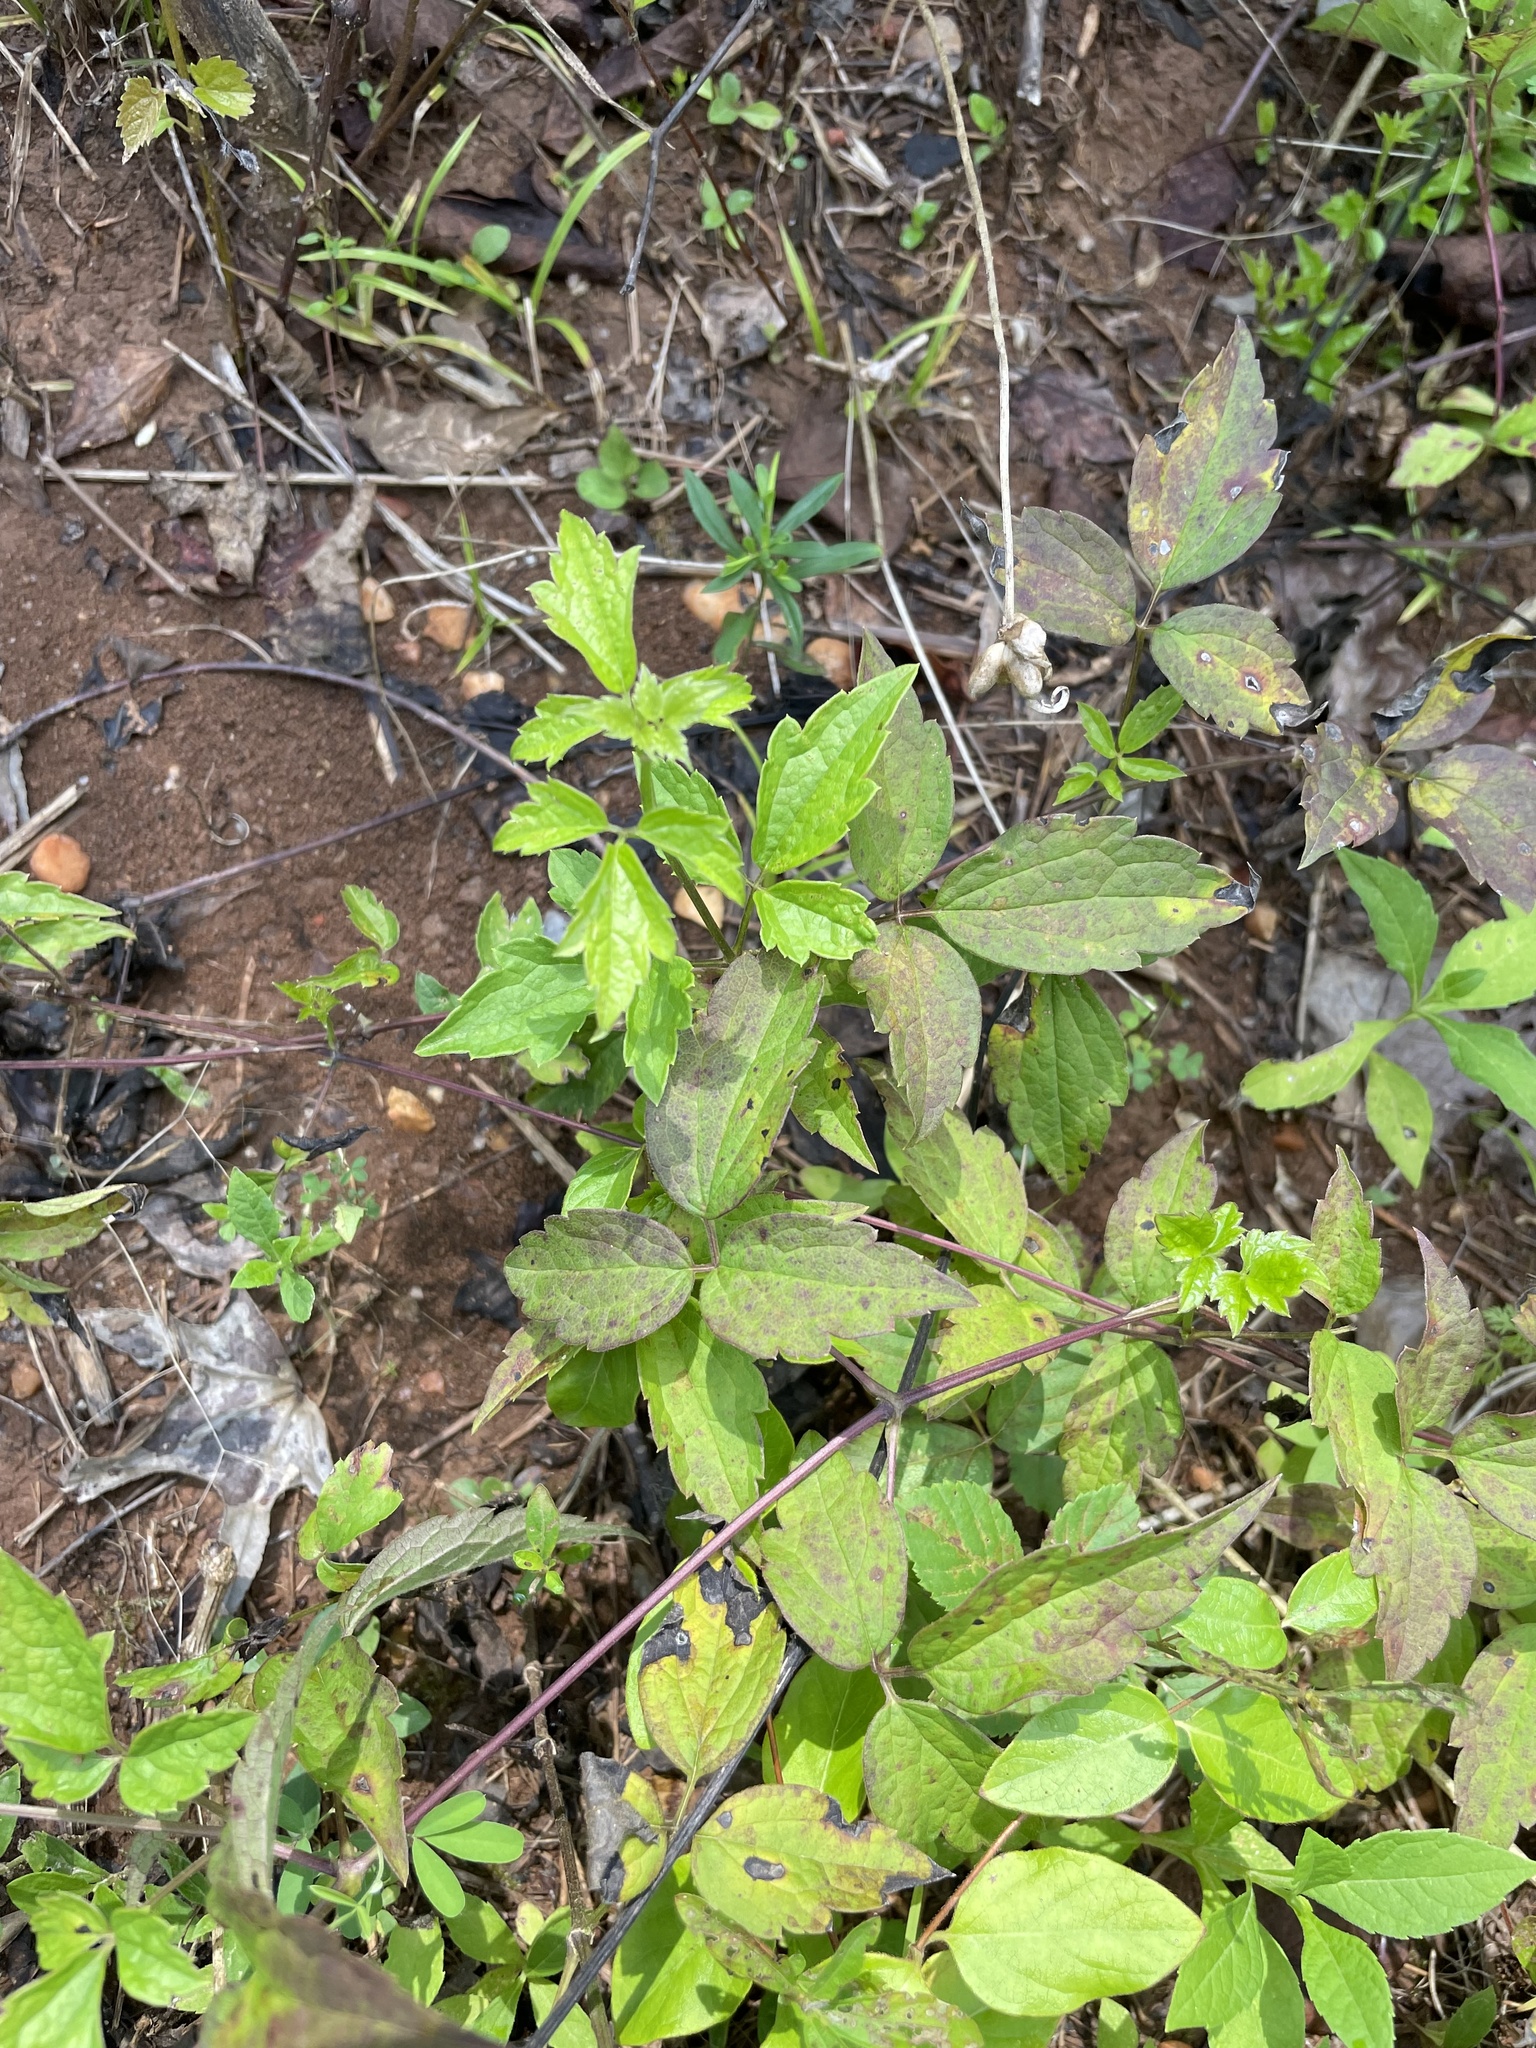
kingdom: Plantae
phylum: Tracheophyta
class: Magnoliopsida
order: Ranunculales
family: Ranunculaceae
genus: Clematis
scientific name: Clematis virginiana
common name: Virgin's-bower
